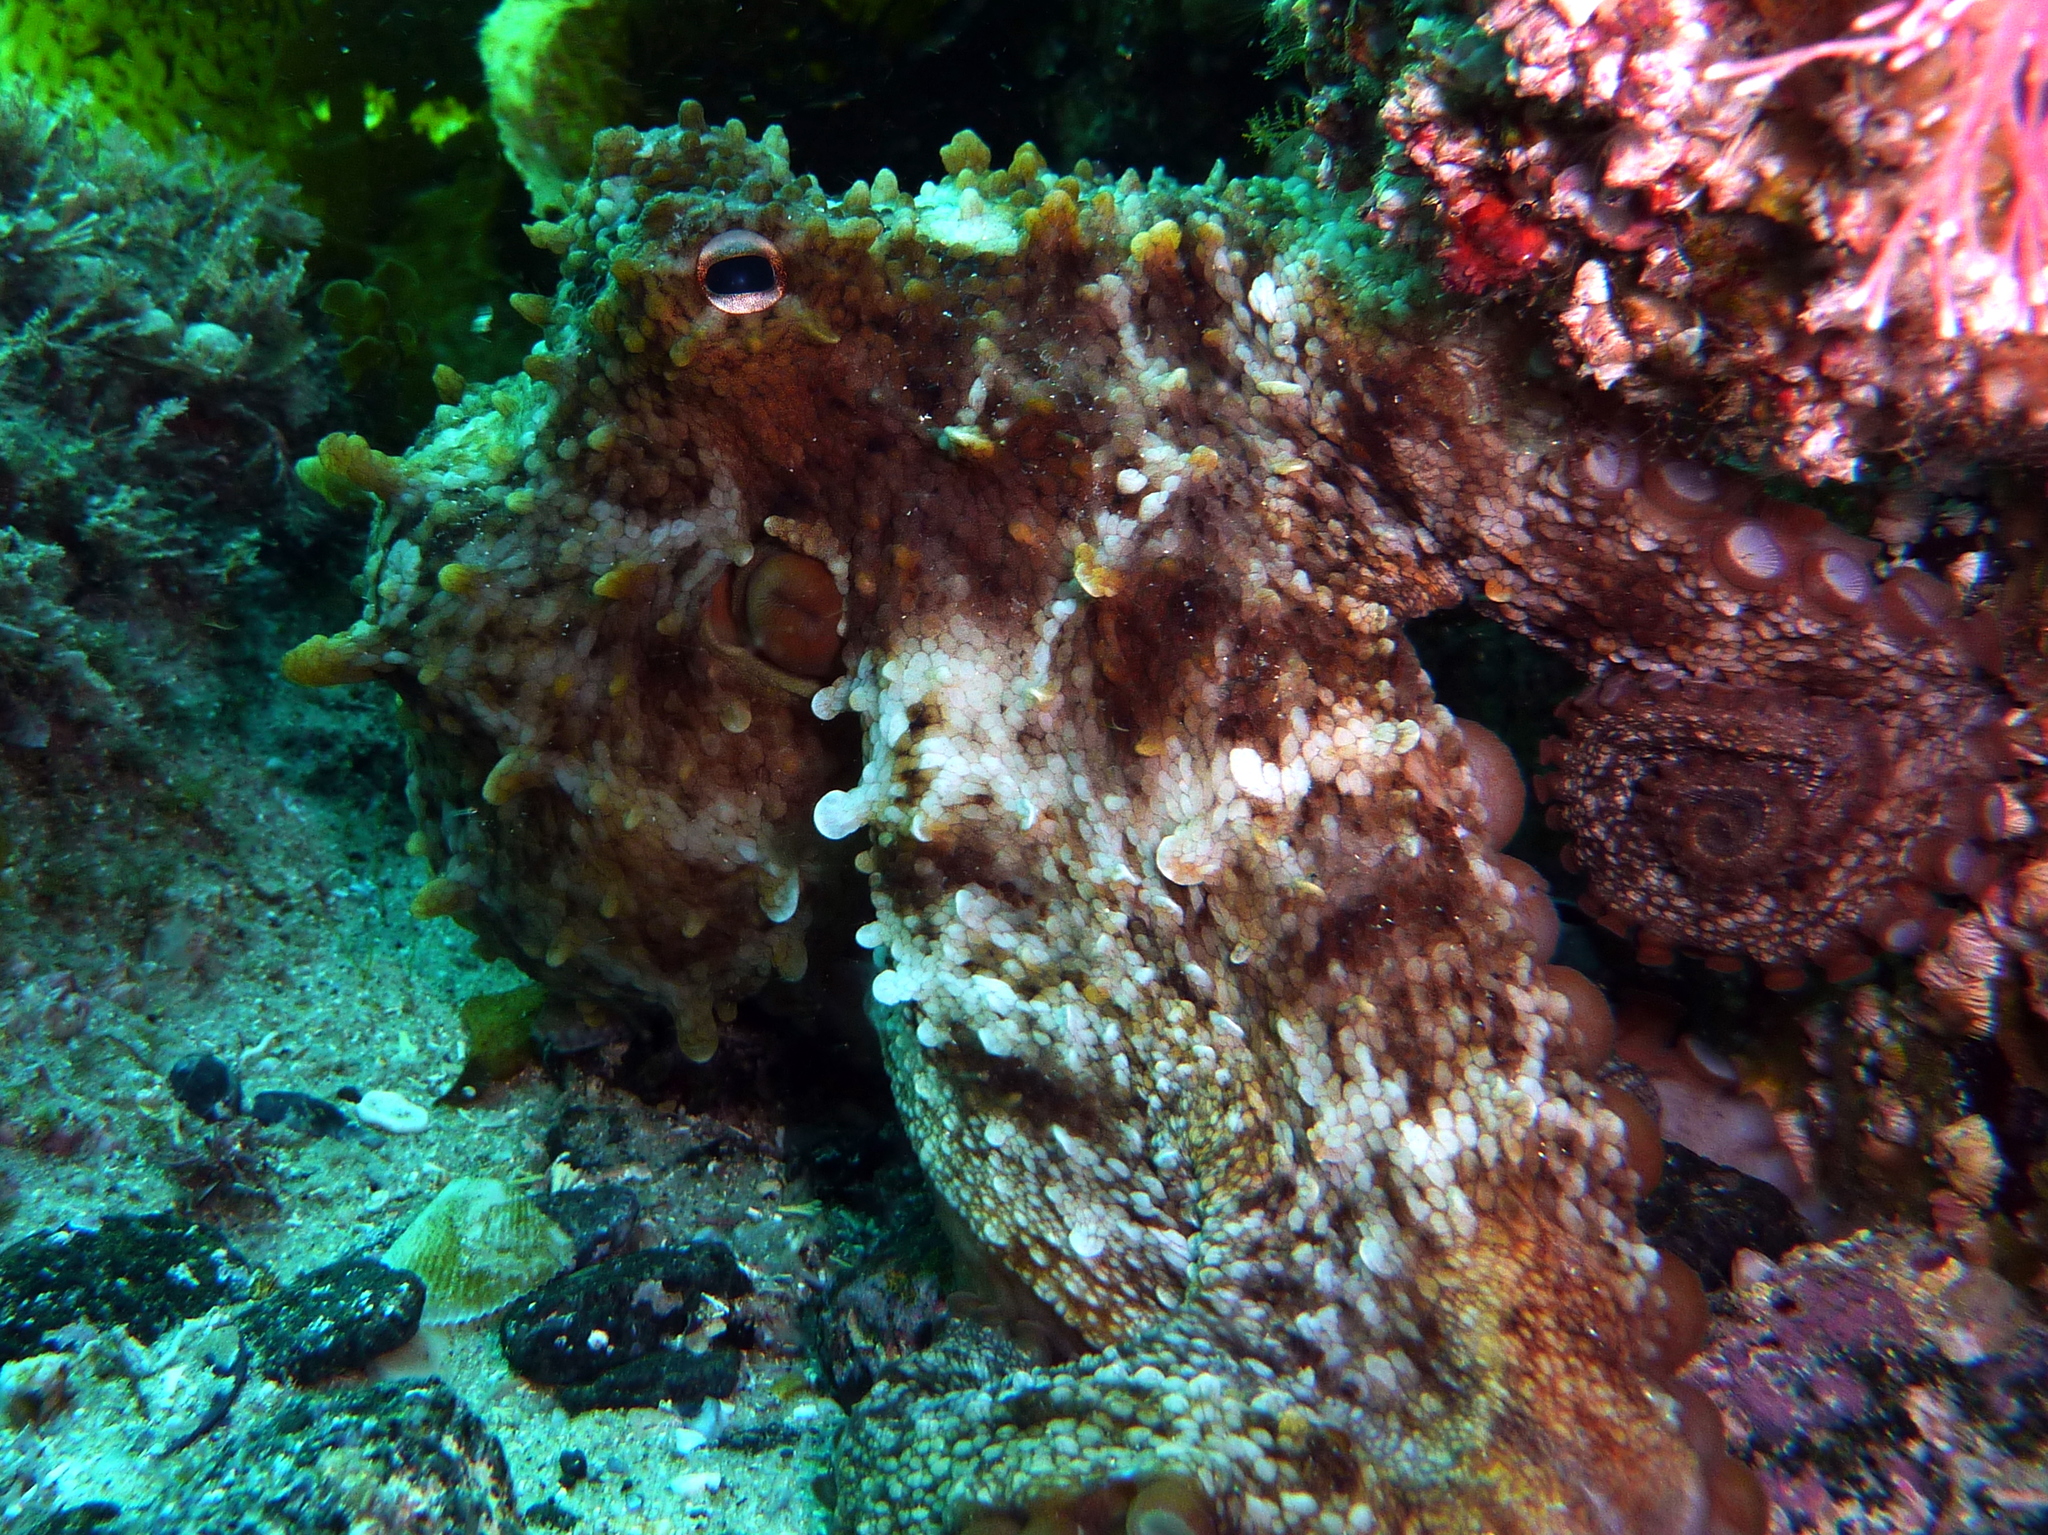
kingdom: Animalia
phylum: Mollusca
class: Cephalopoda
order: Octopoda
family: Octopodidae
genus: Octopus
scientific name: Octopus tetricus
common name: Sydney octopus
